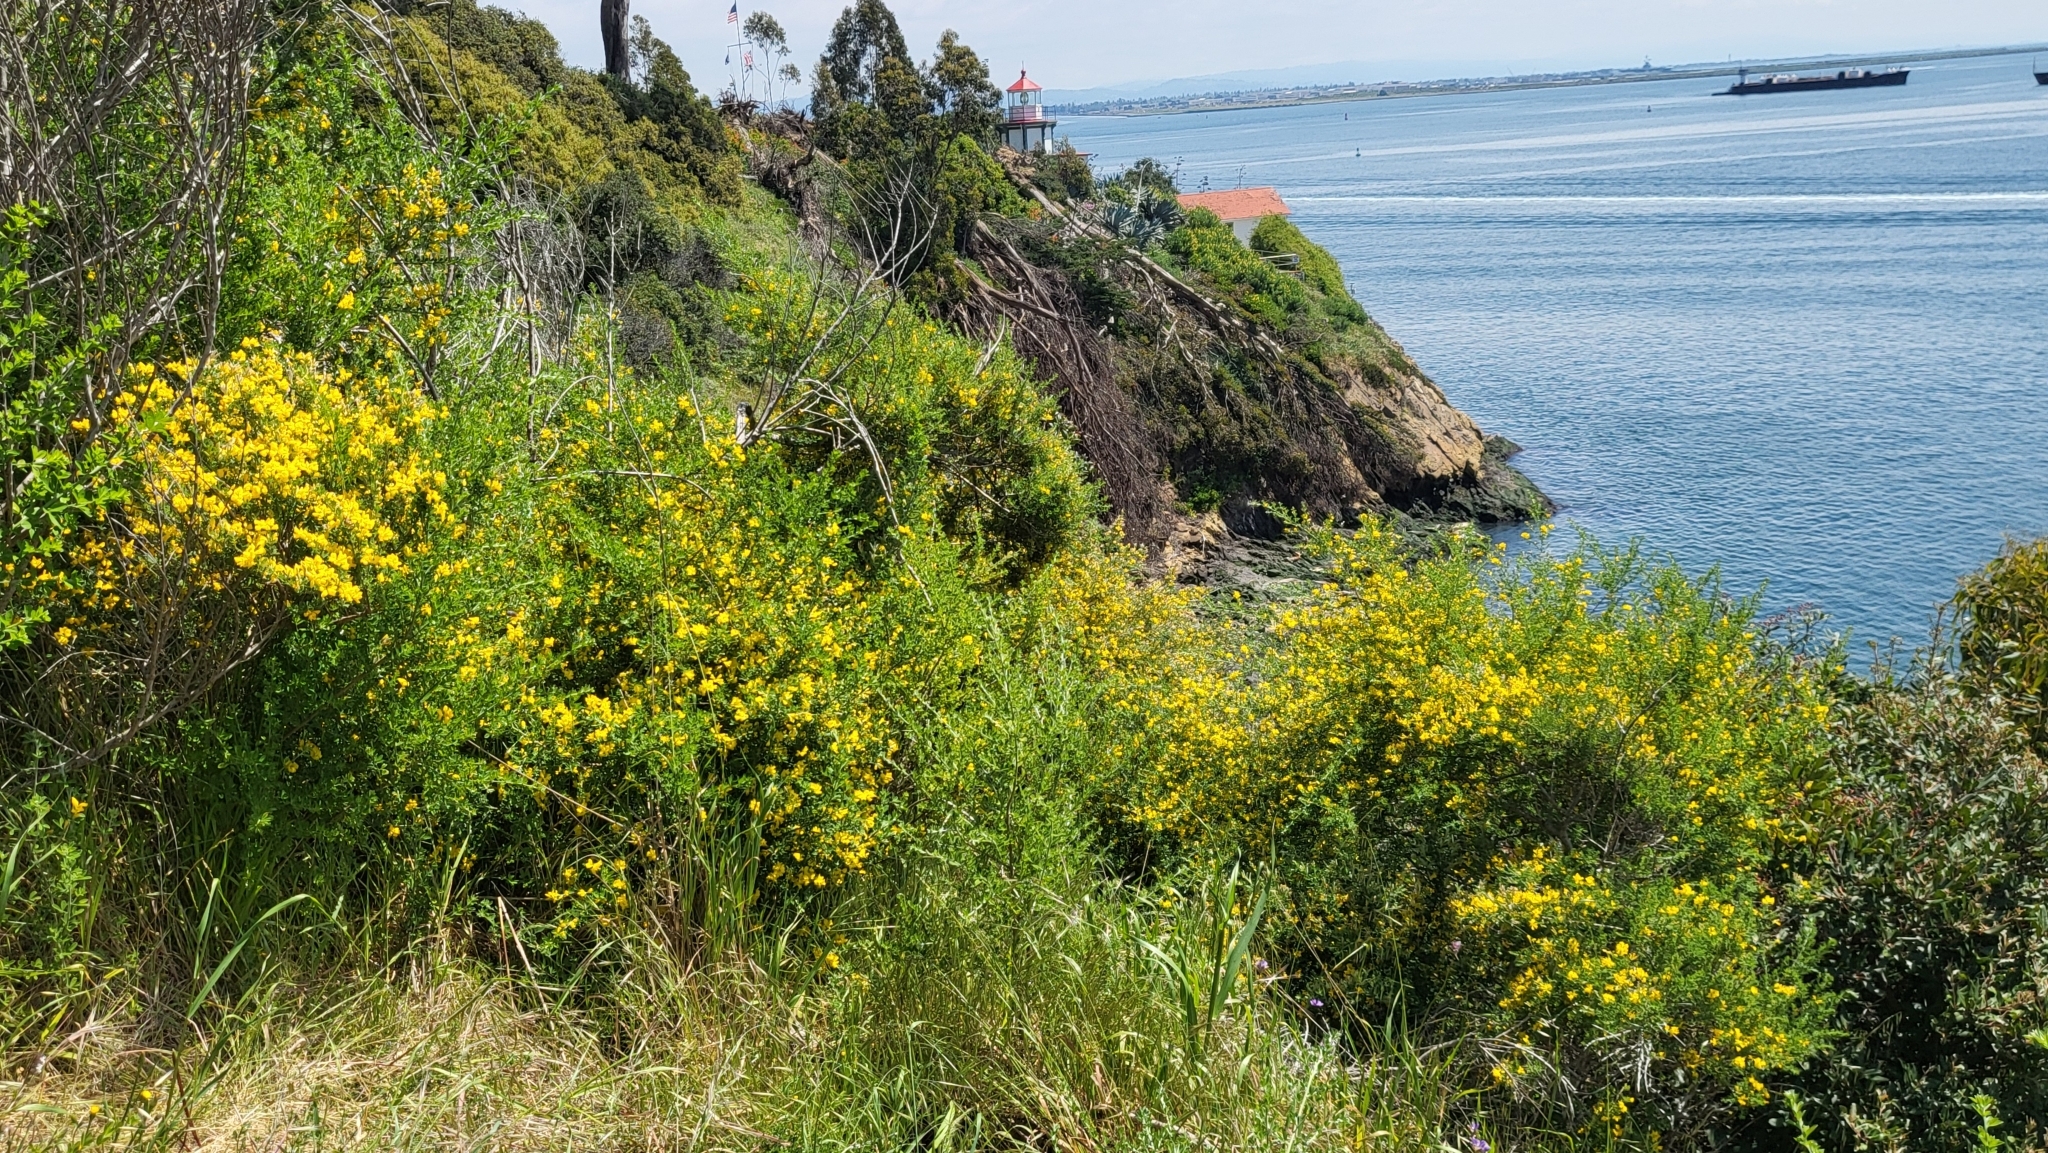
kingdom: Plantae
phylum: Tracheophyta
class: Magnoliopsida
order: Fabales
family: Fabaceae
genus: Genista
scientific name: Genista monspessulana
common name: Montpellier broom
